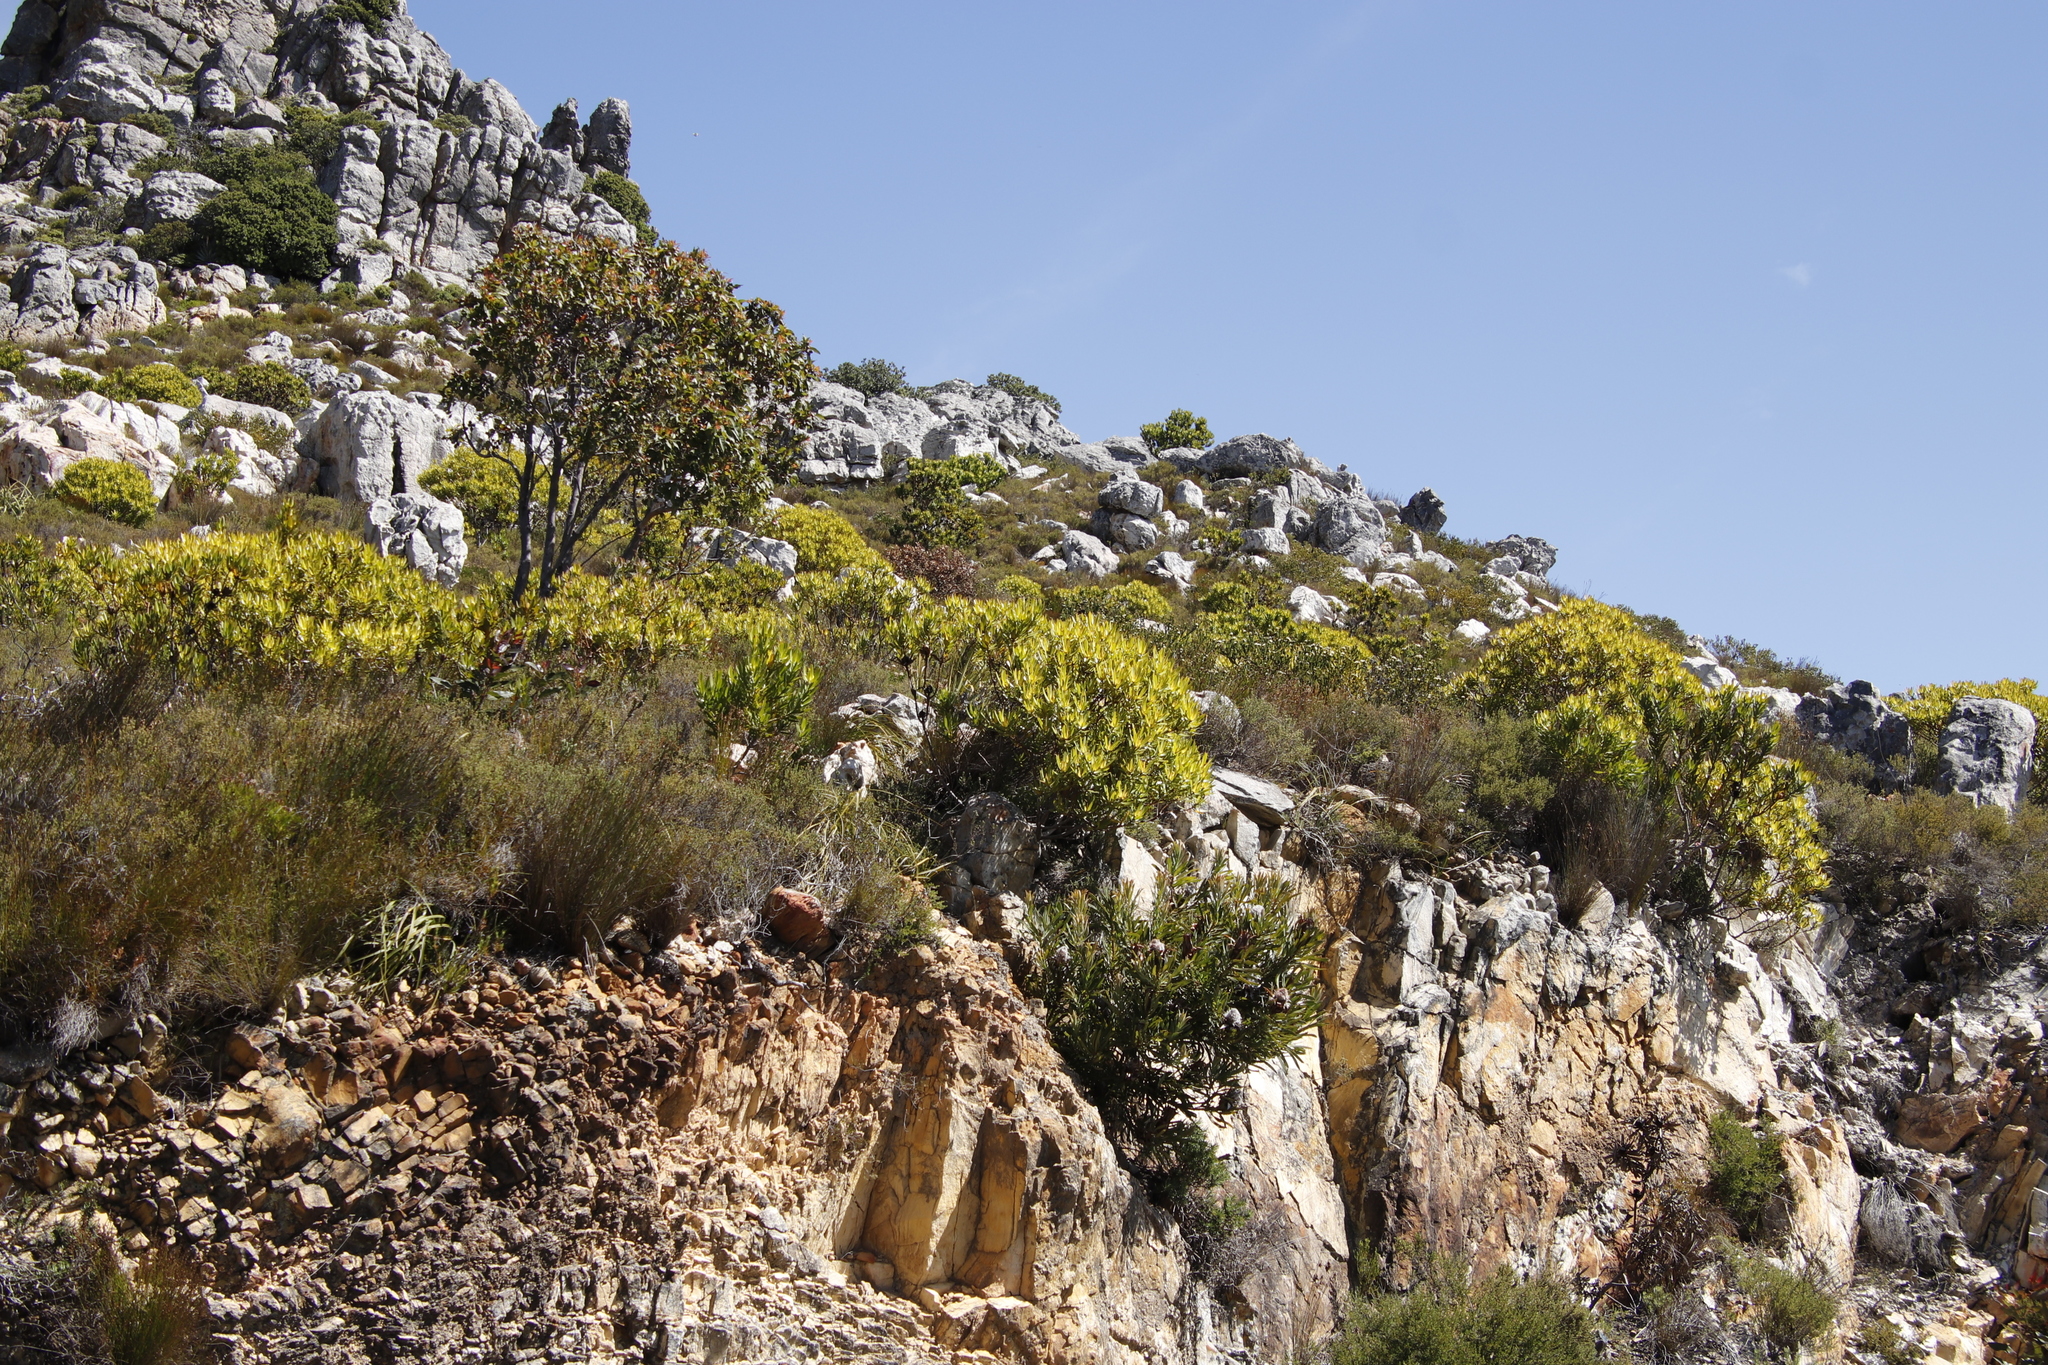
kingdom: Plantae
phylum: Tracheophyta
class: Magnoliopsida
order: Proteales
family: Proteaceae
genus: Leucadendron
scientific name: Leucadendron laureolum
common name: Golden sunshinebush
